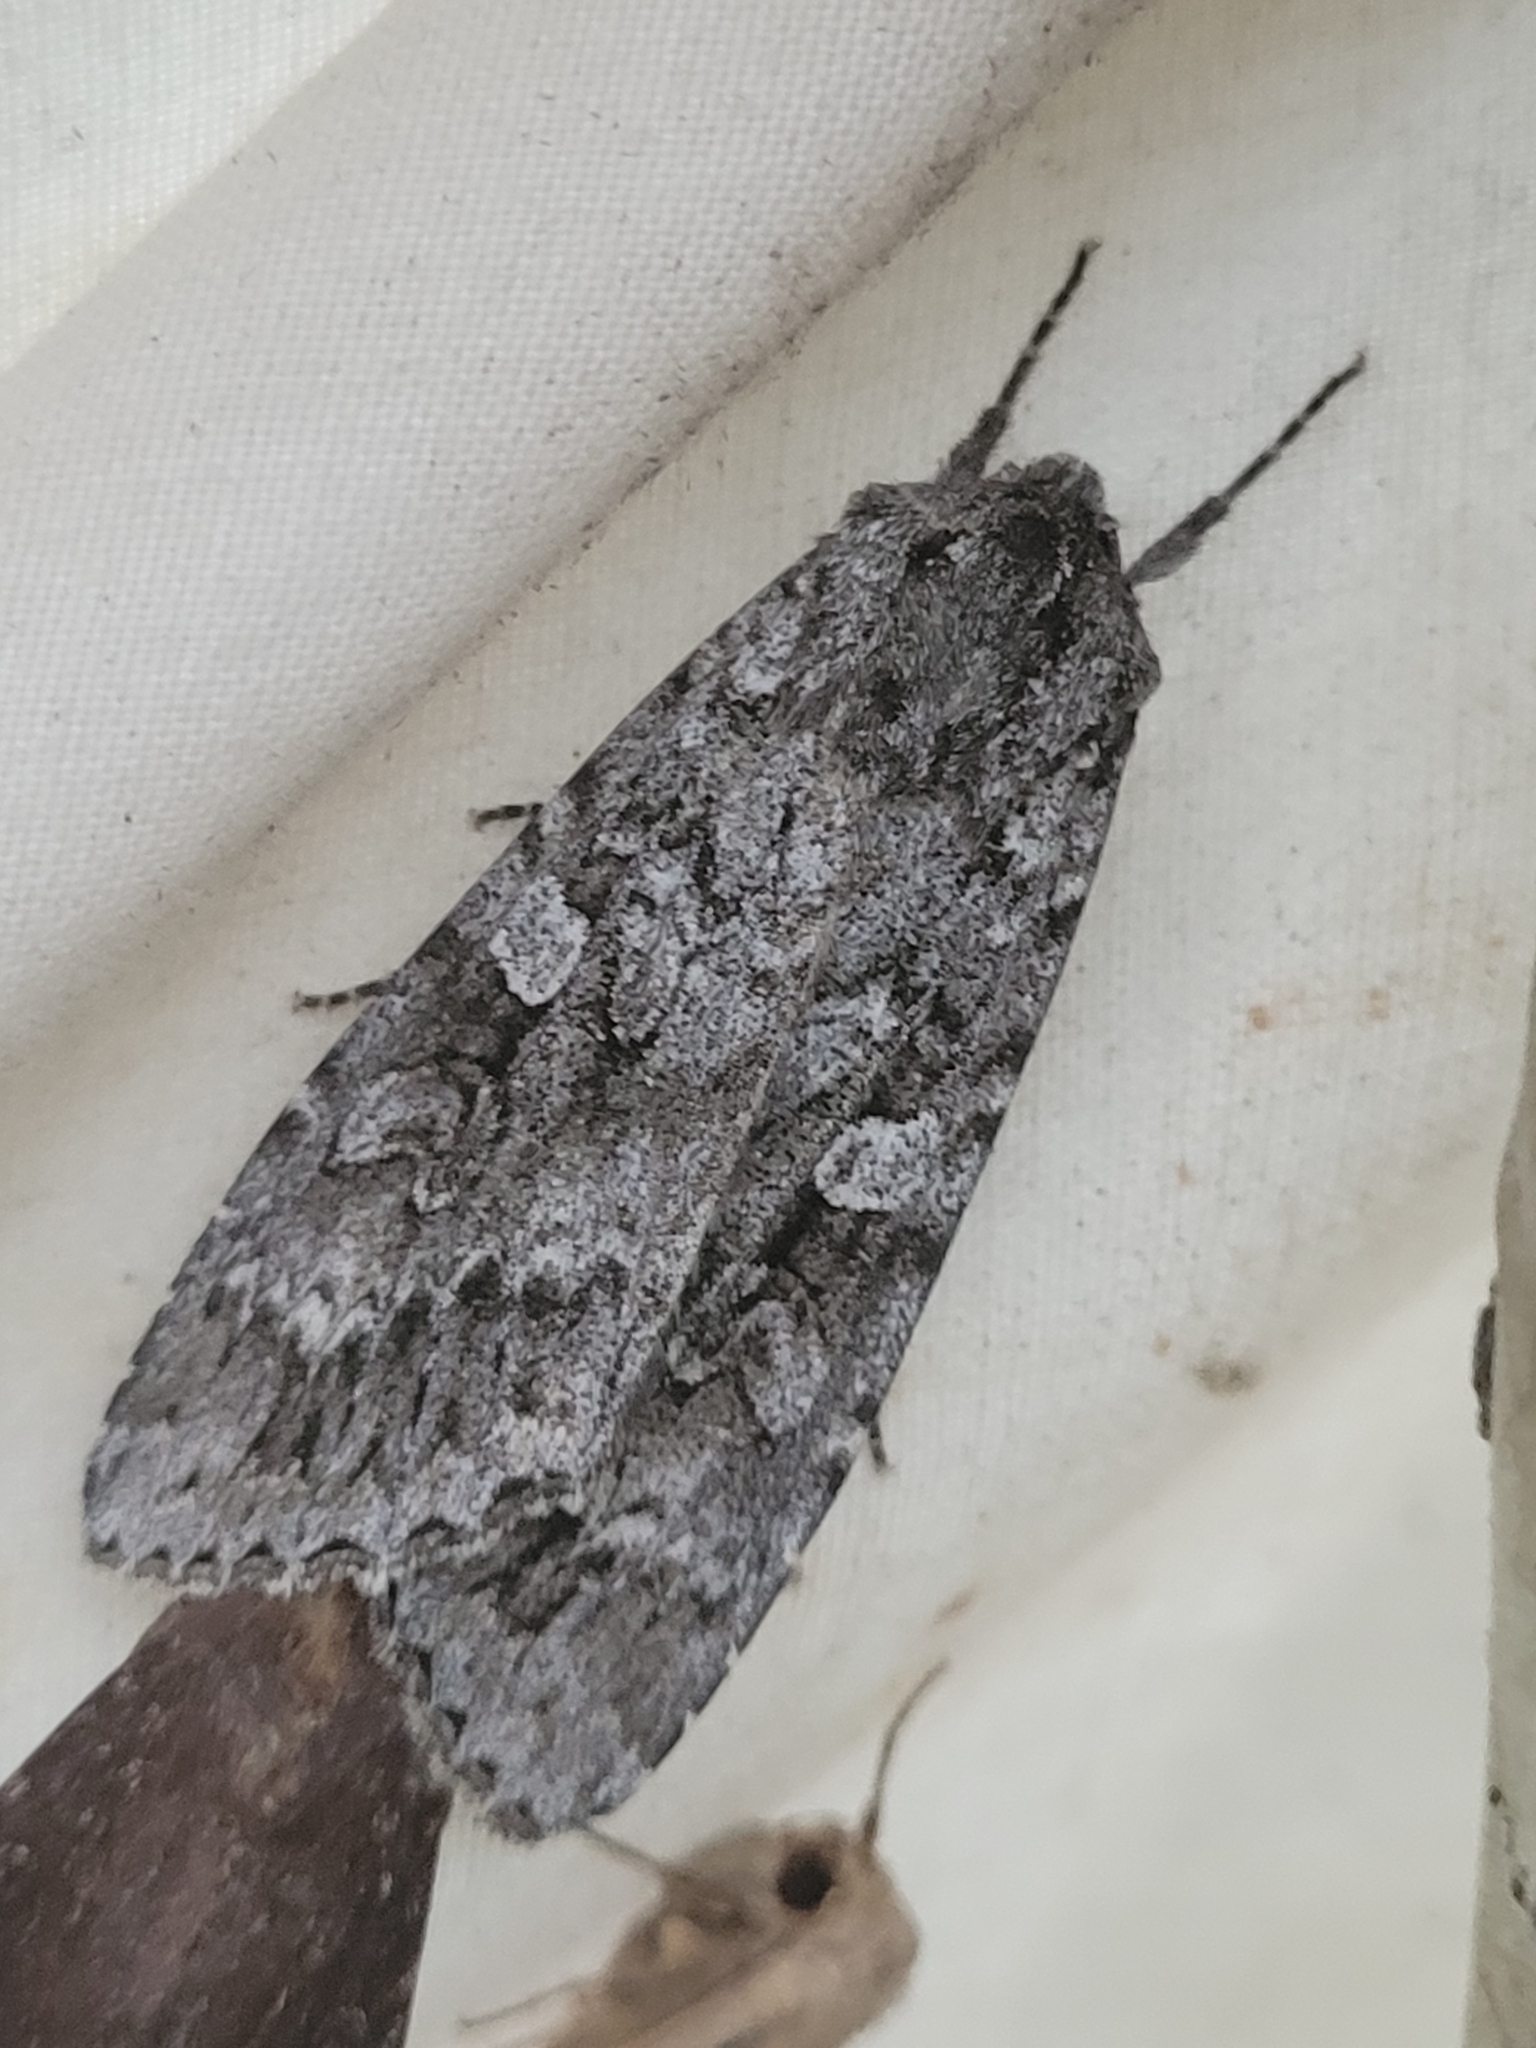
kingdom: Animalia
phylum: Arthropoda
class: Insecta
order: Lepidoptera
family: Noctuidae
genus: Eurois
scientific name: Eurois occulta
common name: Great brocade
